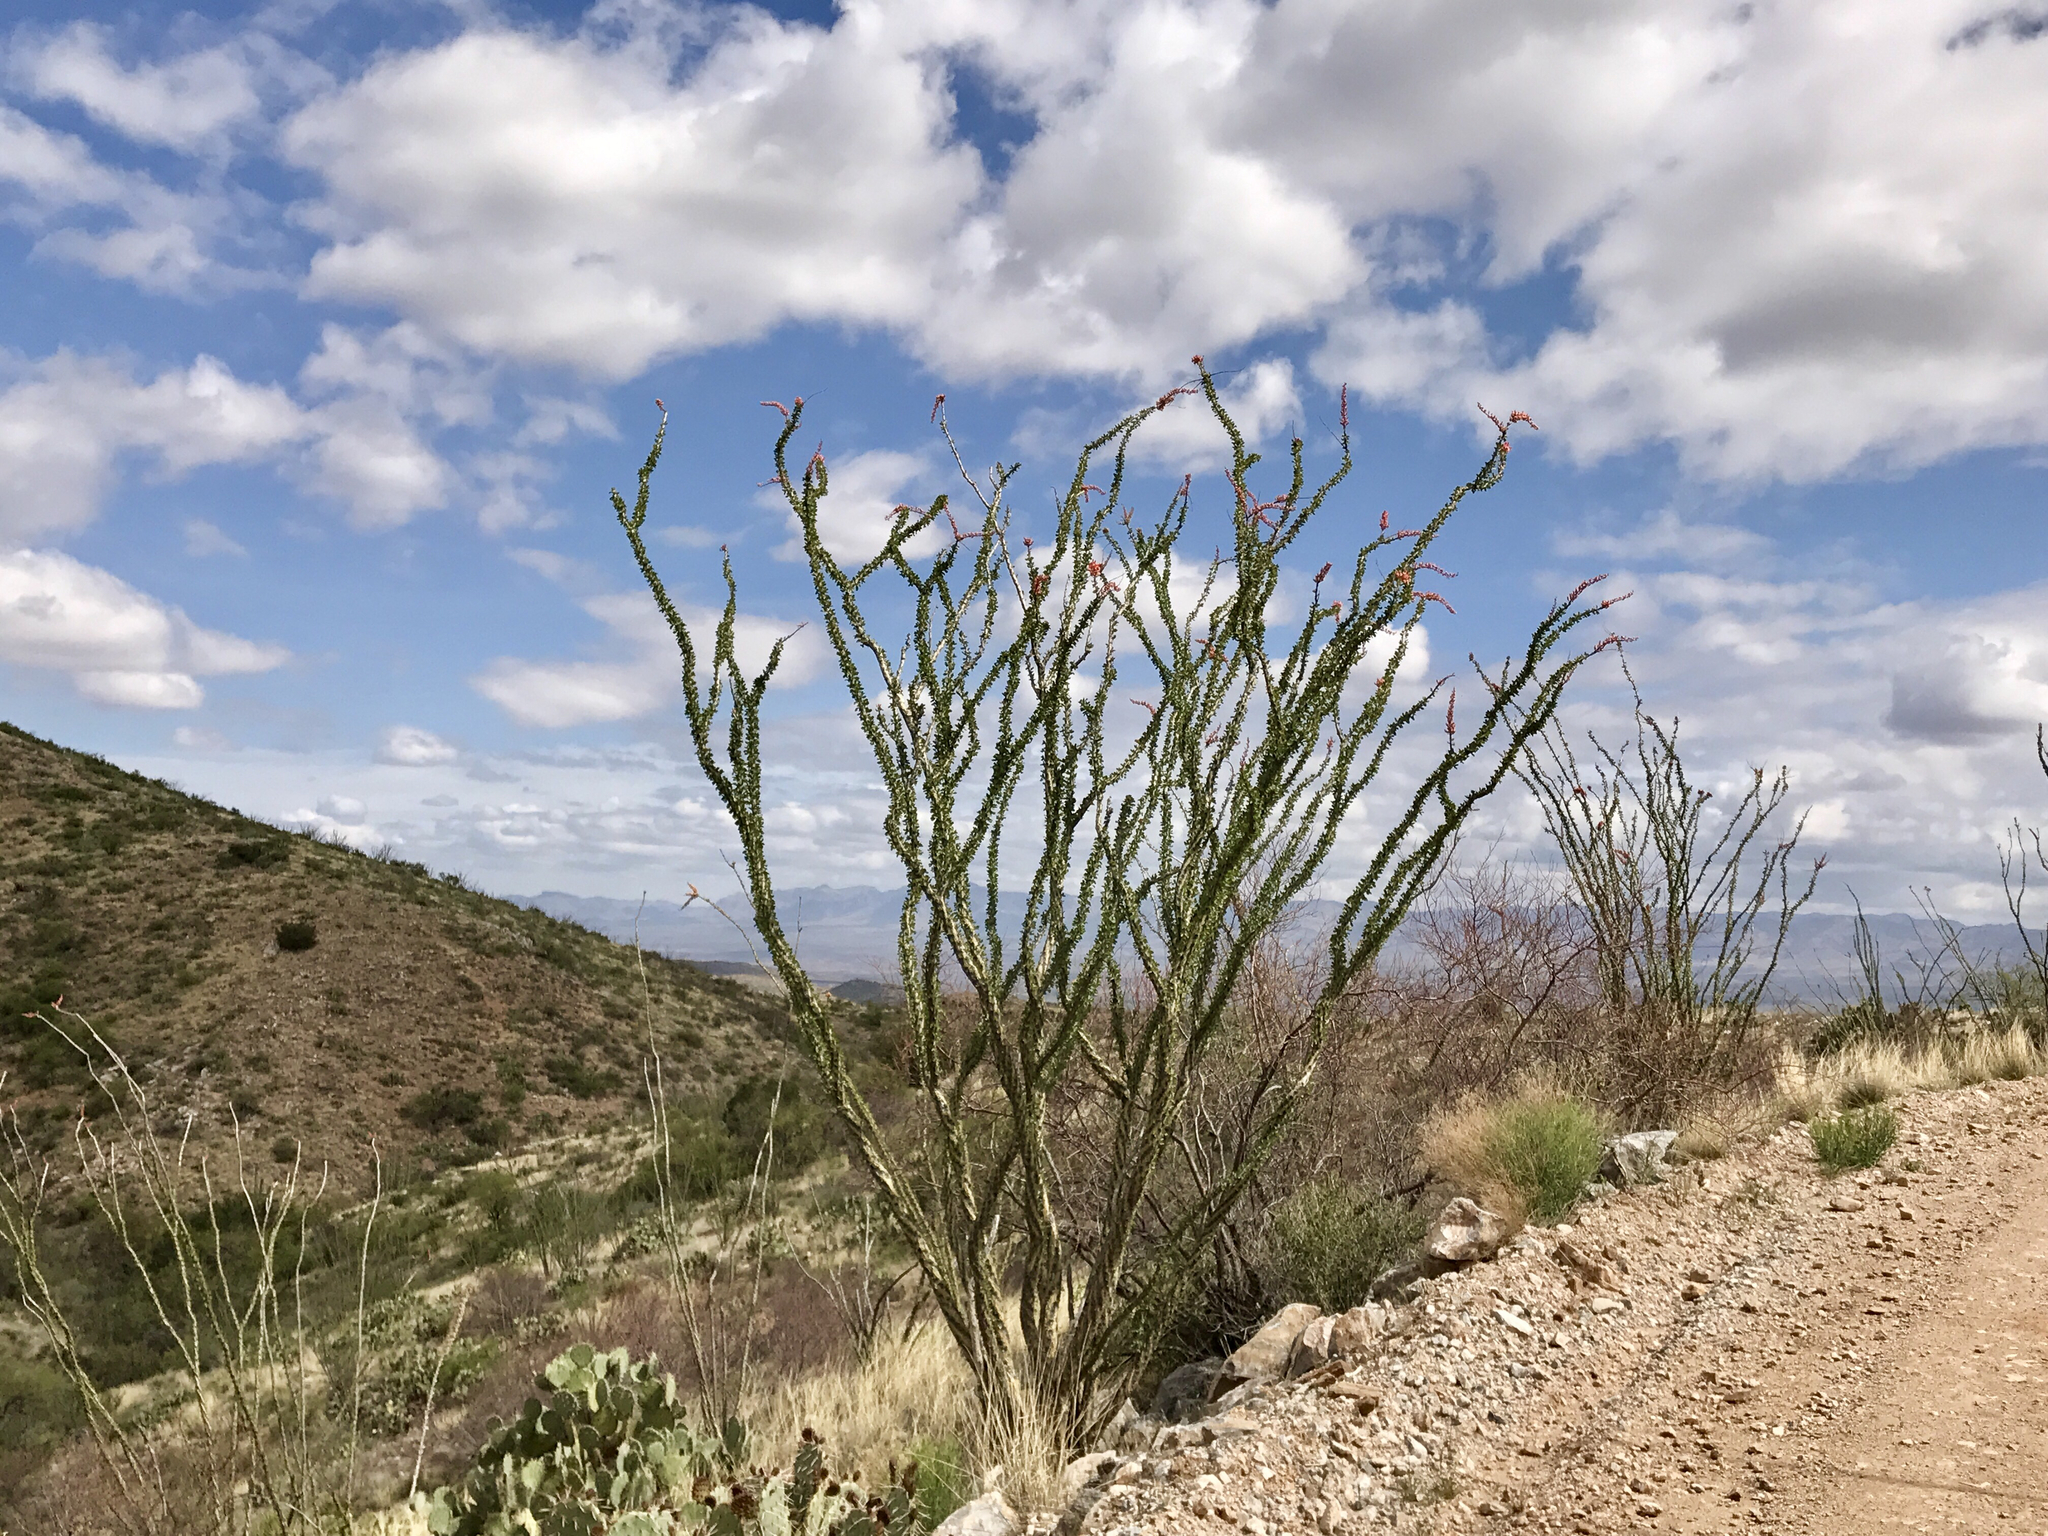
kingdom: Plantae
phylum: Tracheophyta
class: Magnoliopsida
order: Ericales
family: Fouquieriaceae
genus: Fouquieria
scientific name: Fouquieria splendens
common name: Vine-cactus
